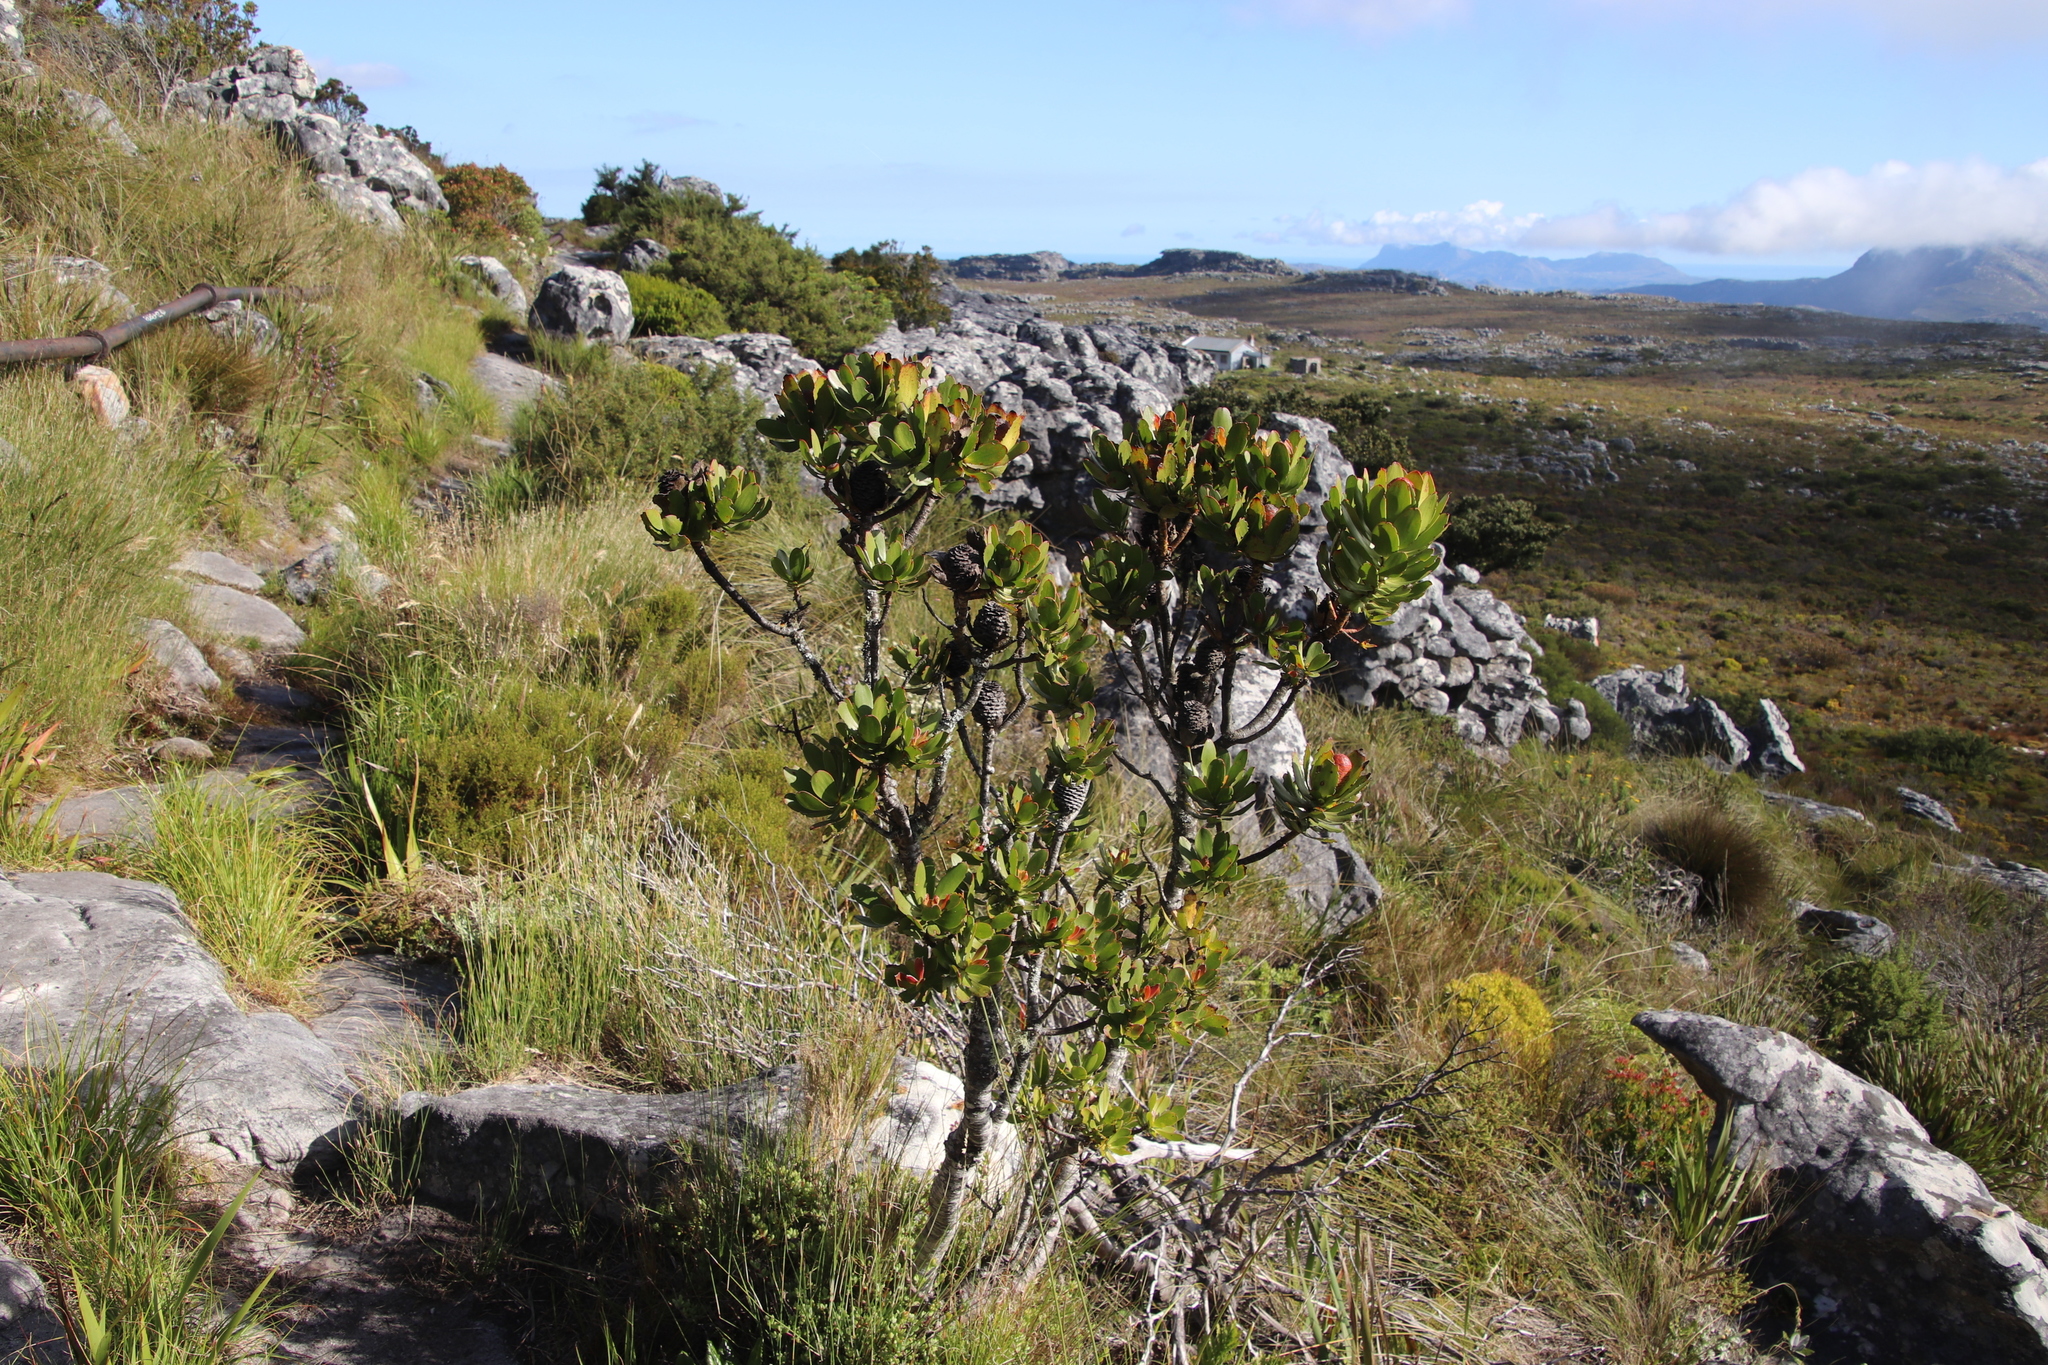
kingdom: Plantae
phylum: Tracheophyta
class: Magnoliopsida
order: Proteales
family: Proteaceae
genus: Leucadendron
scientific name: Leucadendron strobilinum
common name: Mountain rose
